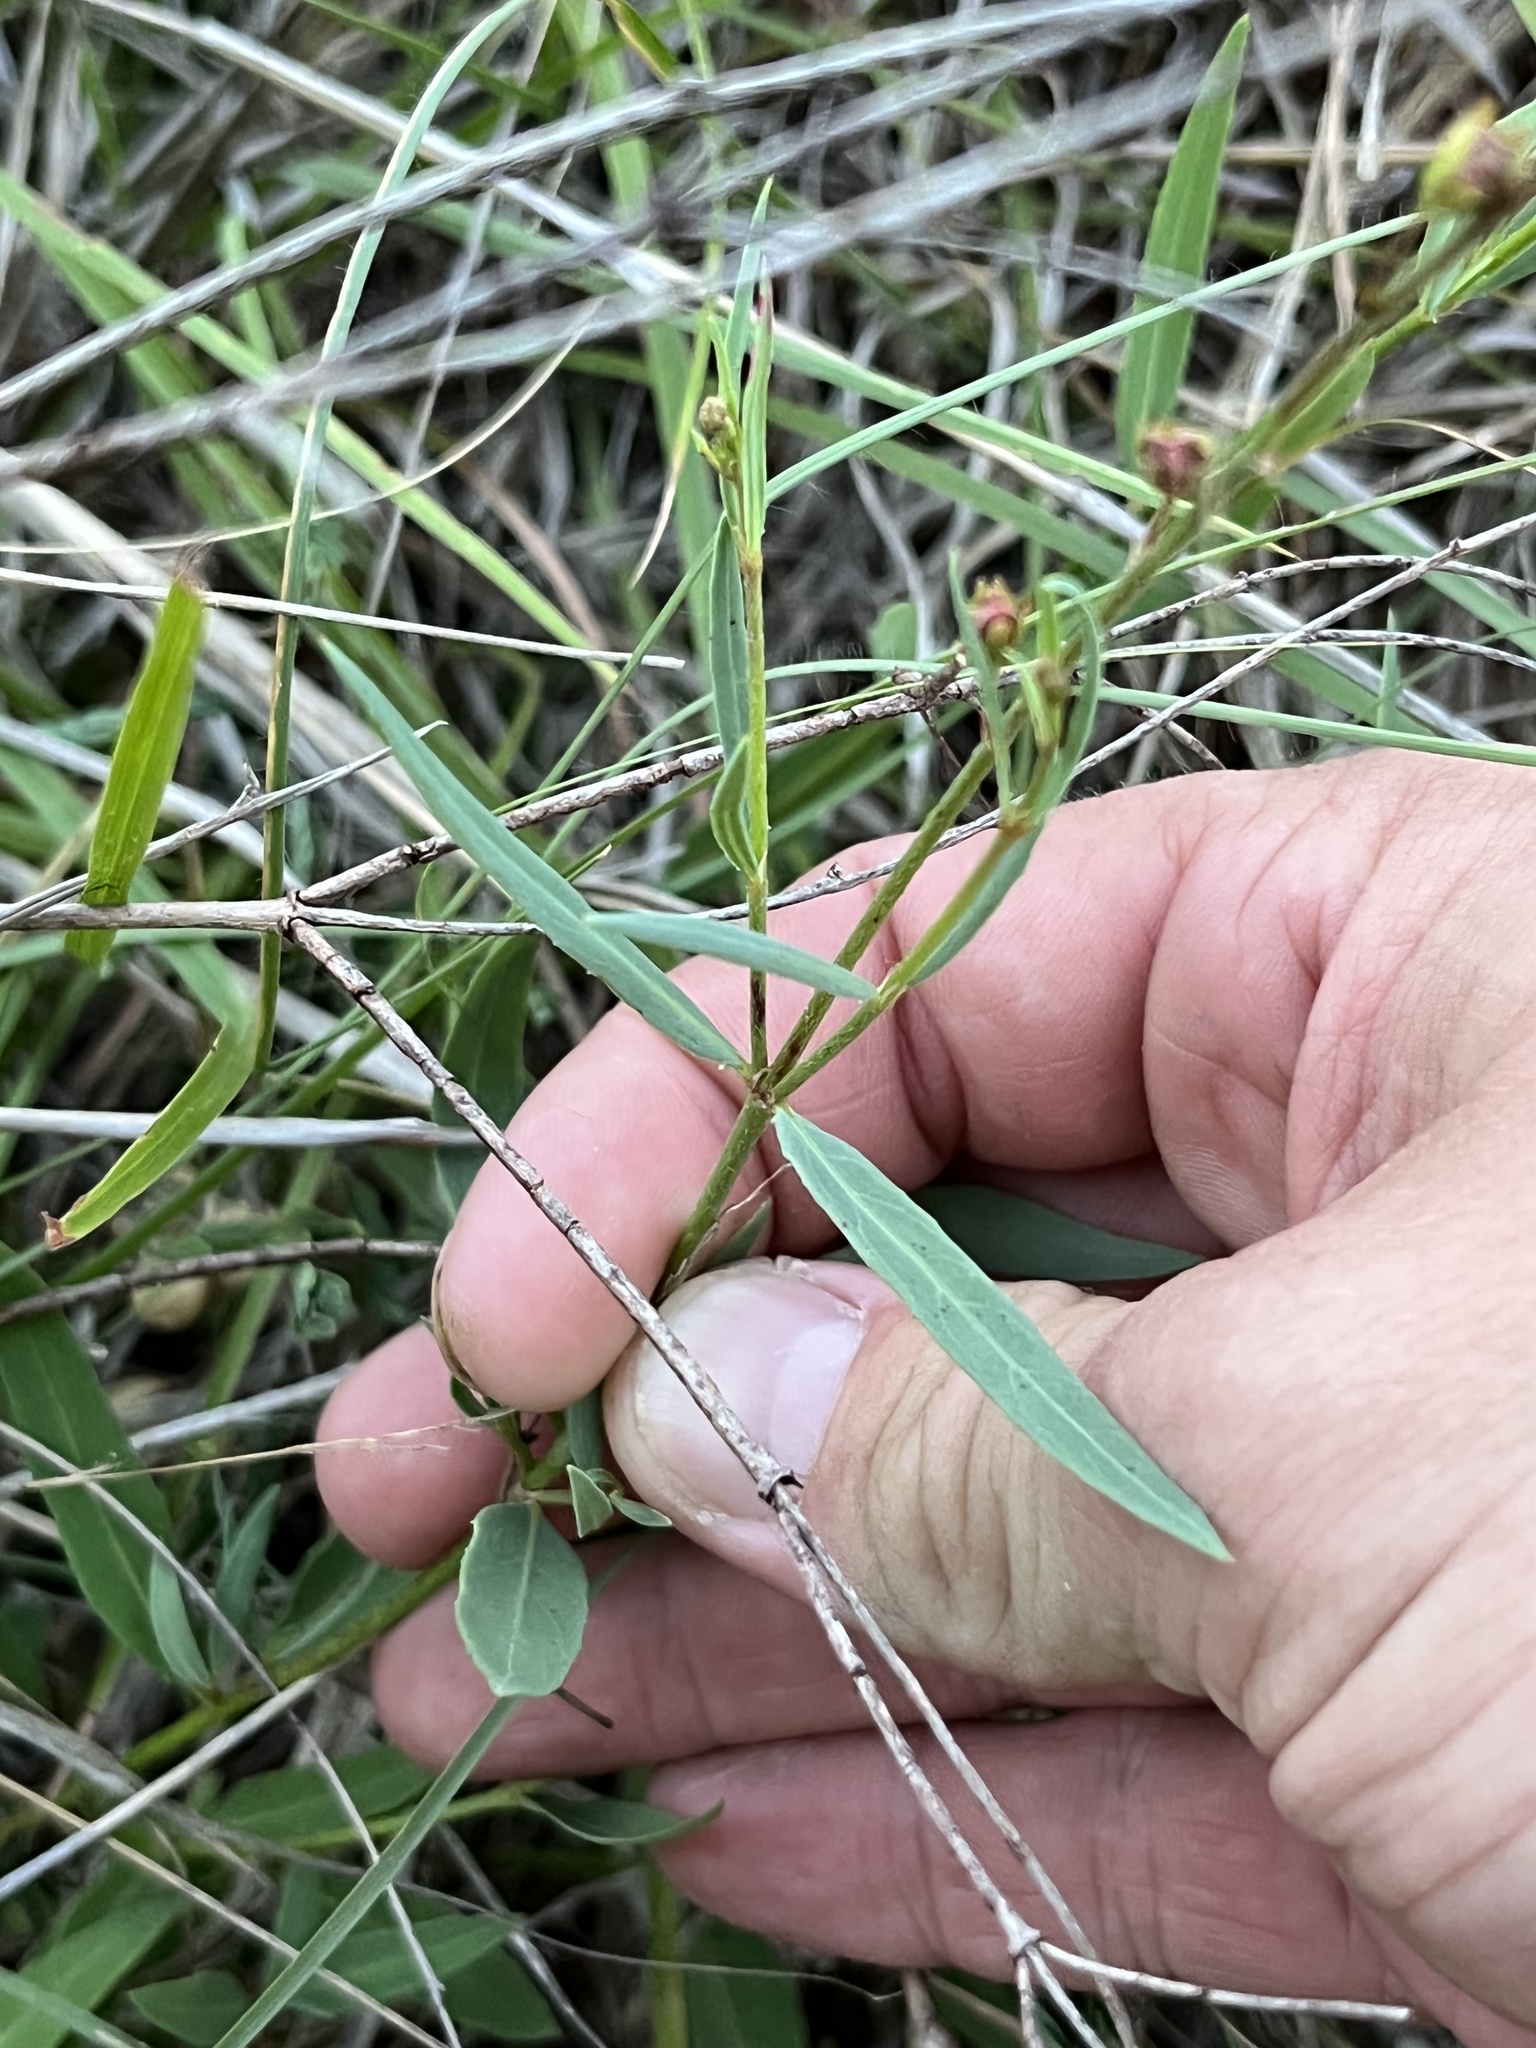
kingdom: Plantae
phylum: Tracheophyta
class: Magnoliopsida
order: Malpighiales
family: Malpighiaceae
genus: Galphimia
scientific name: Galphimia angustifolia
